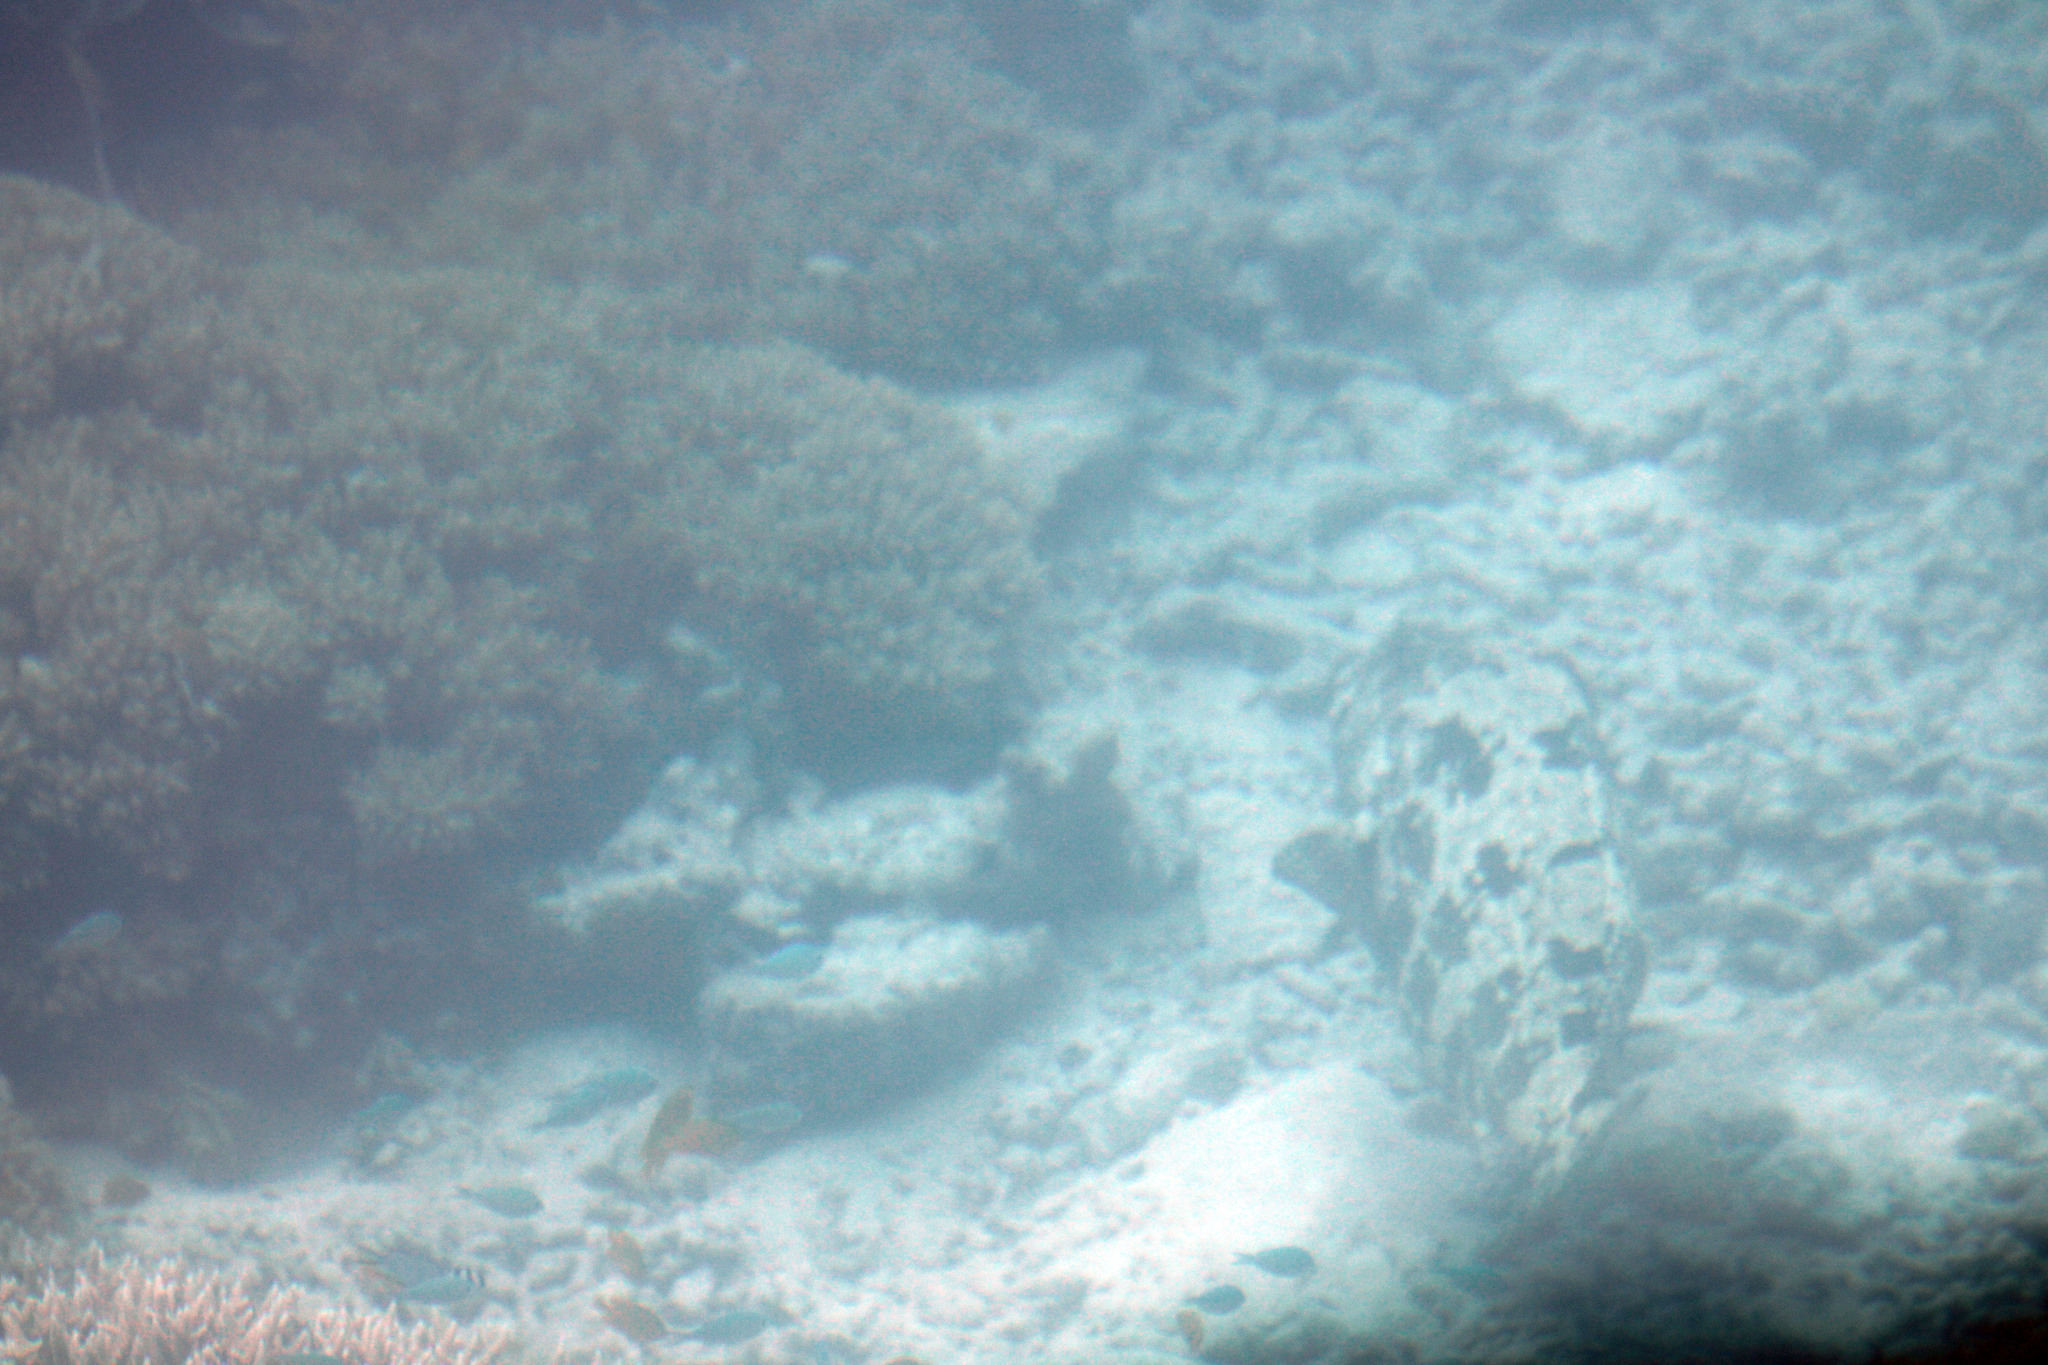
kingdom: Animalia
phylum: Chordata
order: Perciformes
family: Serranidae
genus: Epinephelus
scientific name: Epinephelus fuscoguttatus
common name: Brown-marbled grouper
